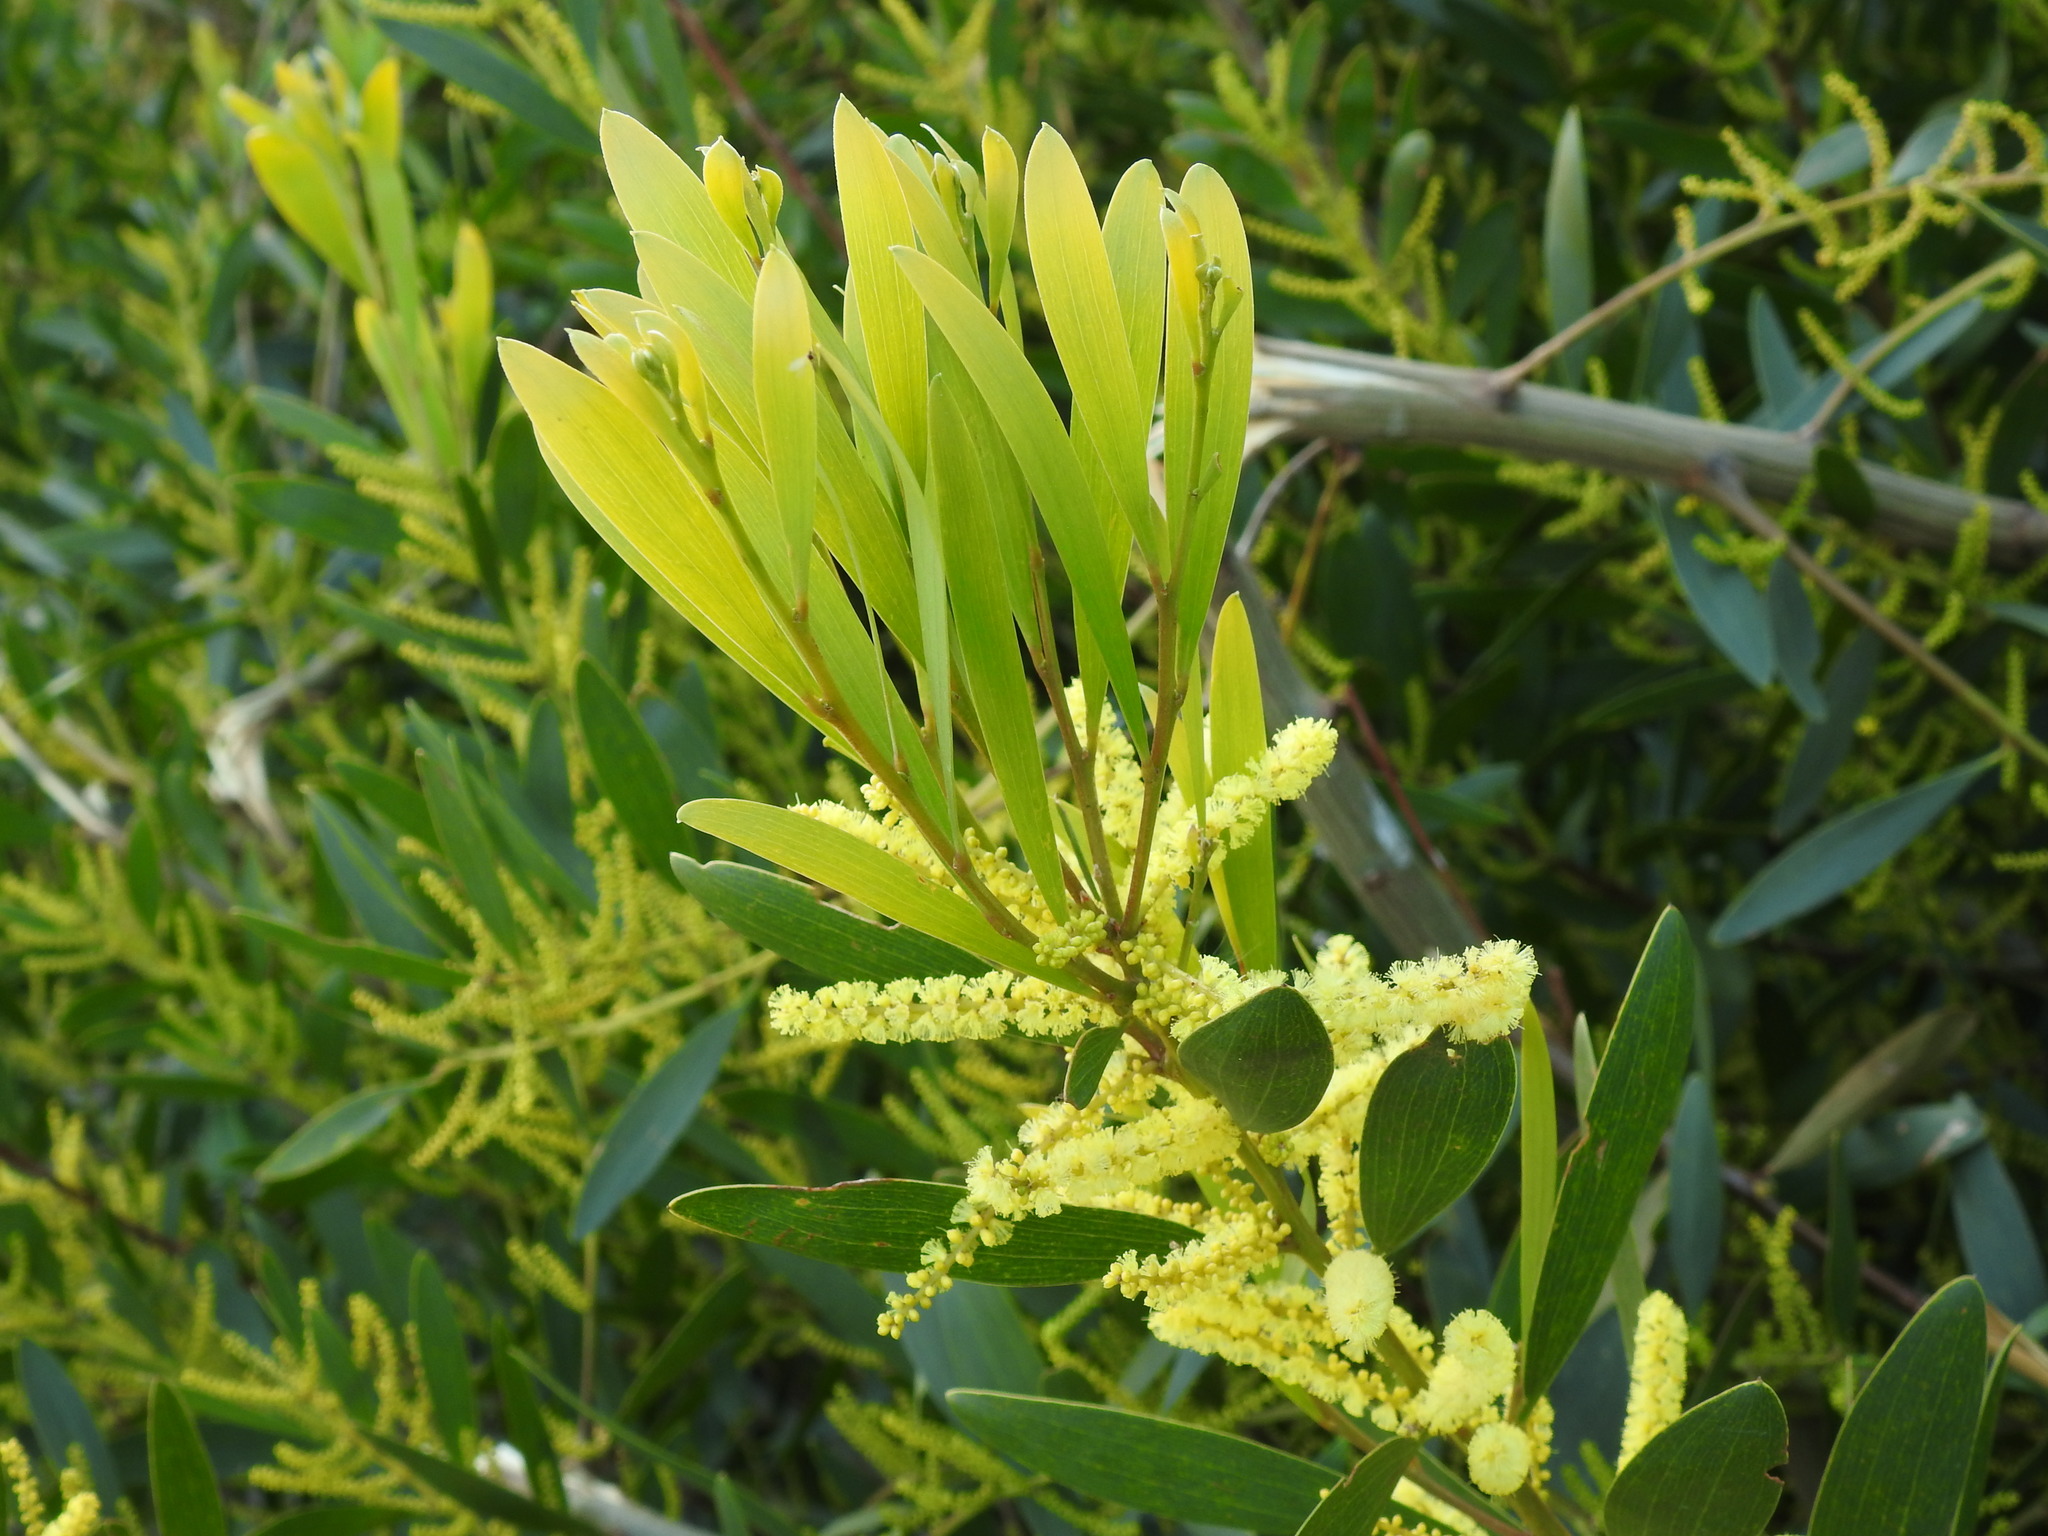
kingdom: Plantae
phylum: Tracheophyta
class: Magnoliopsida
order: Fabales
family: Fabaceae
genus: Acacia
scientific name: Acacia longifolia
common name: Sydney golden wattle
